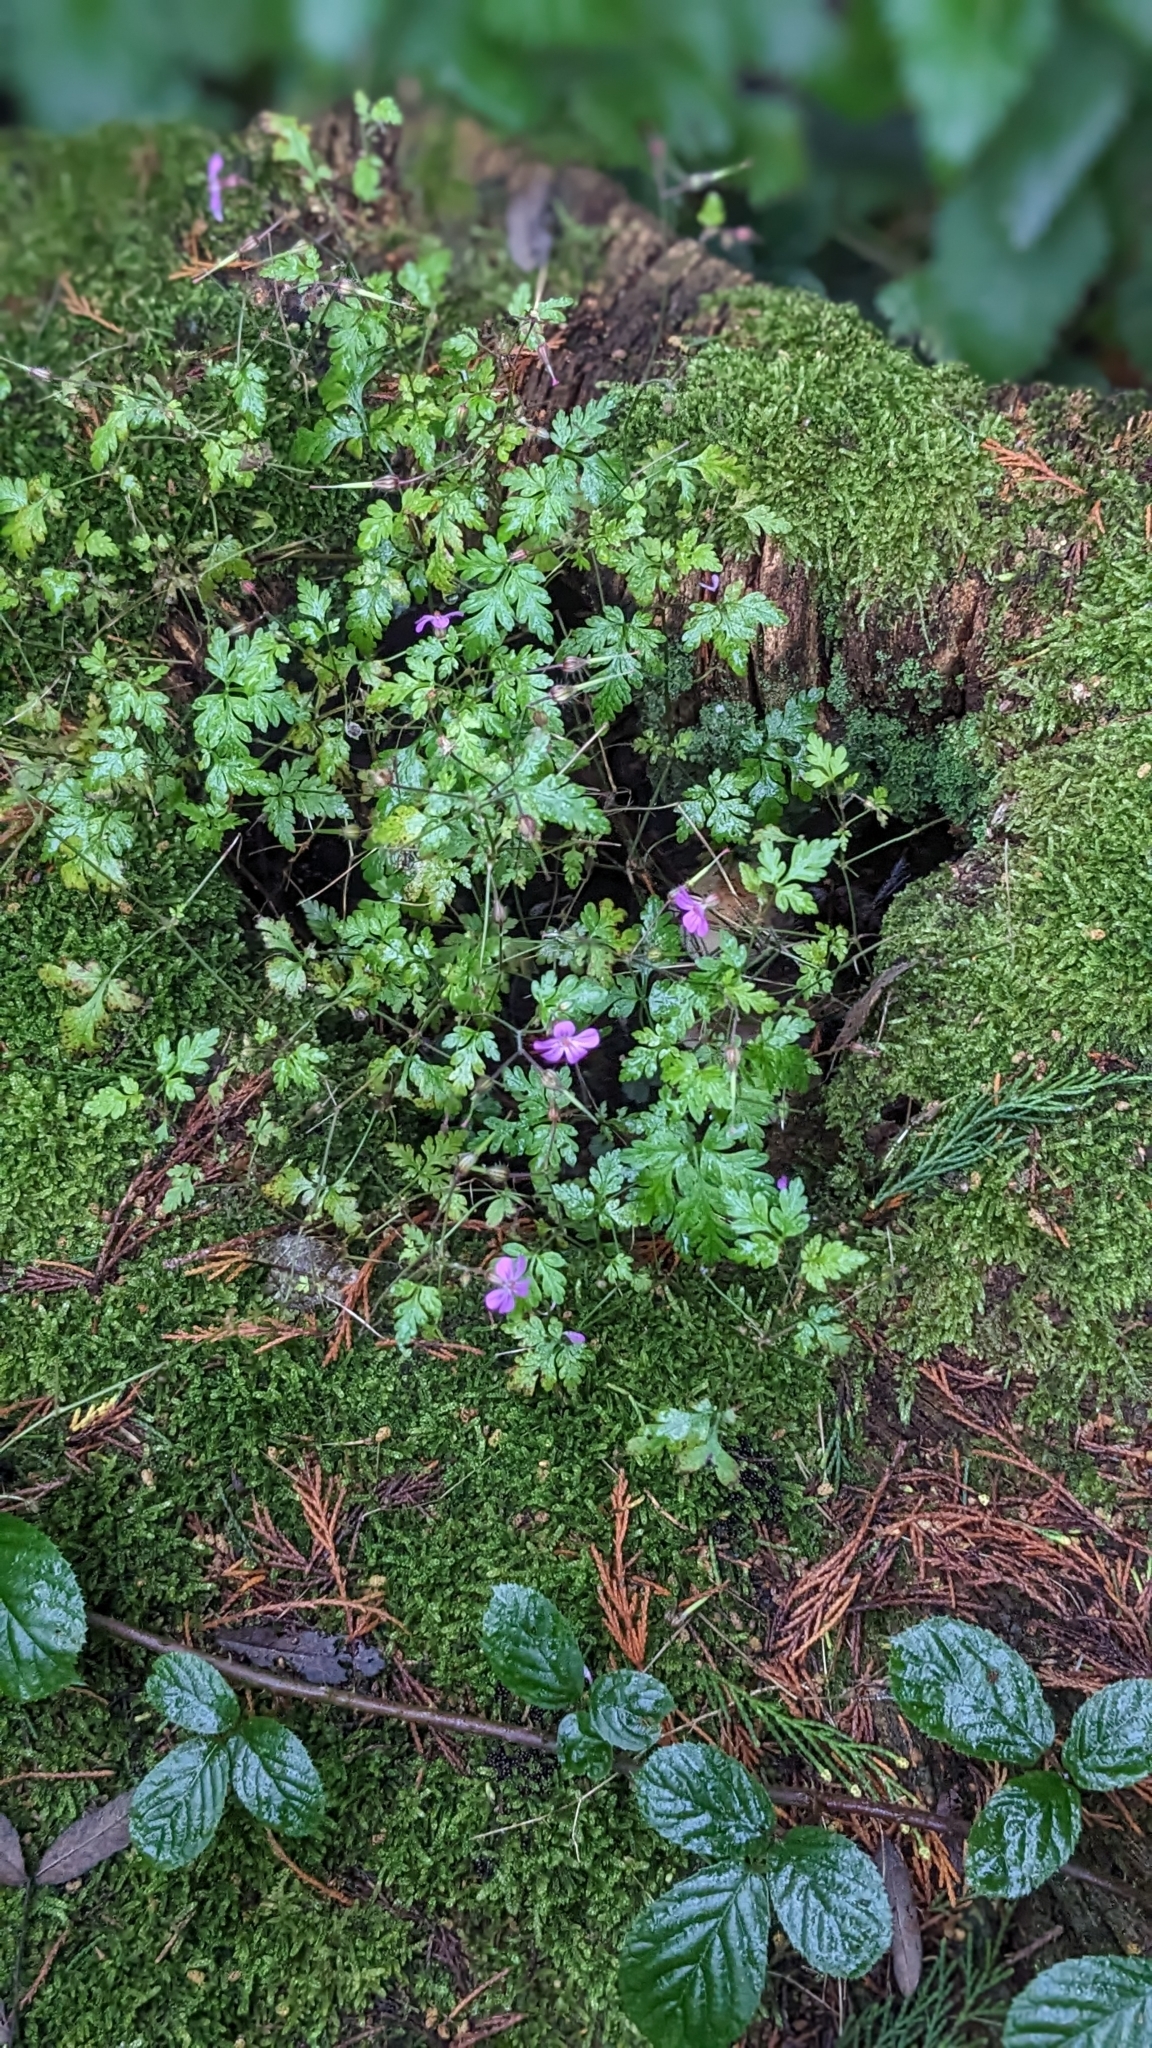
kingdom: Plantae
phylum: Tracheophyta
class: Magnoliopsida
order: Geraniales
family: Geraniaceae
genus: Geranium
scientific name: Geranium robertianum
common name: Herb-robert
